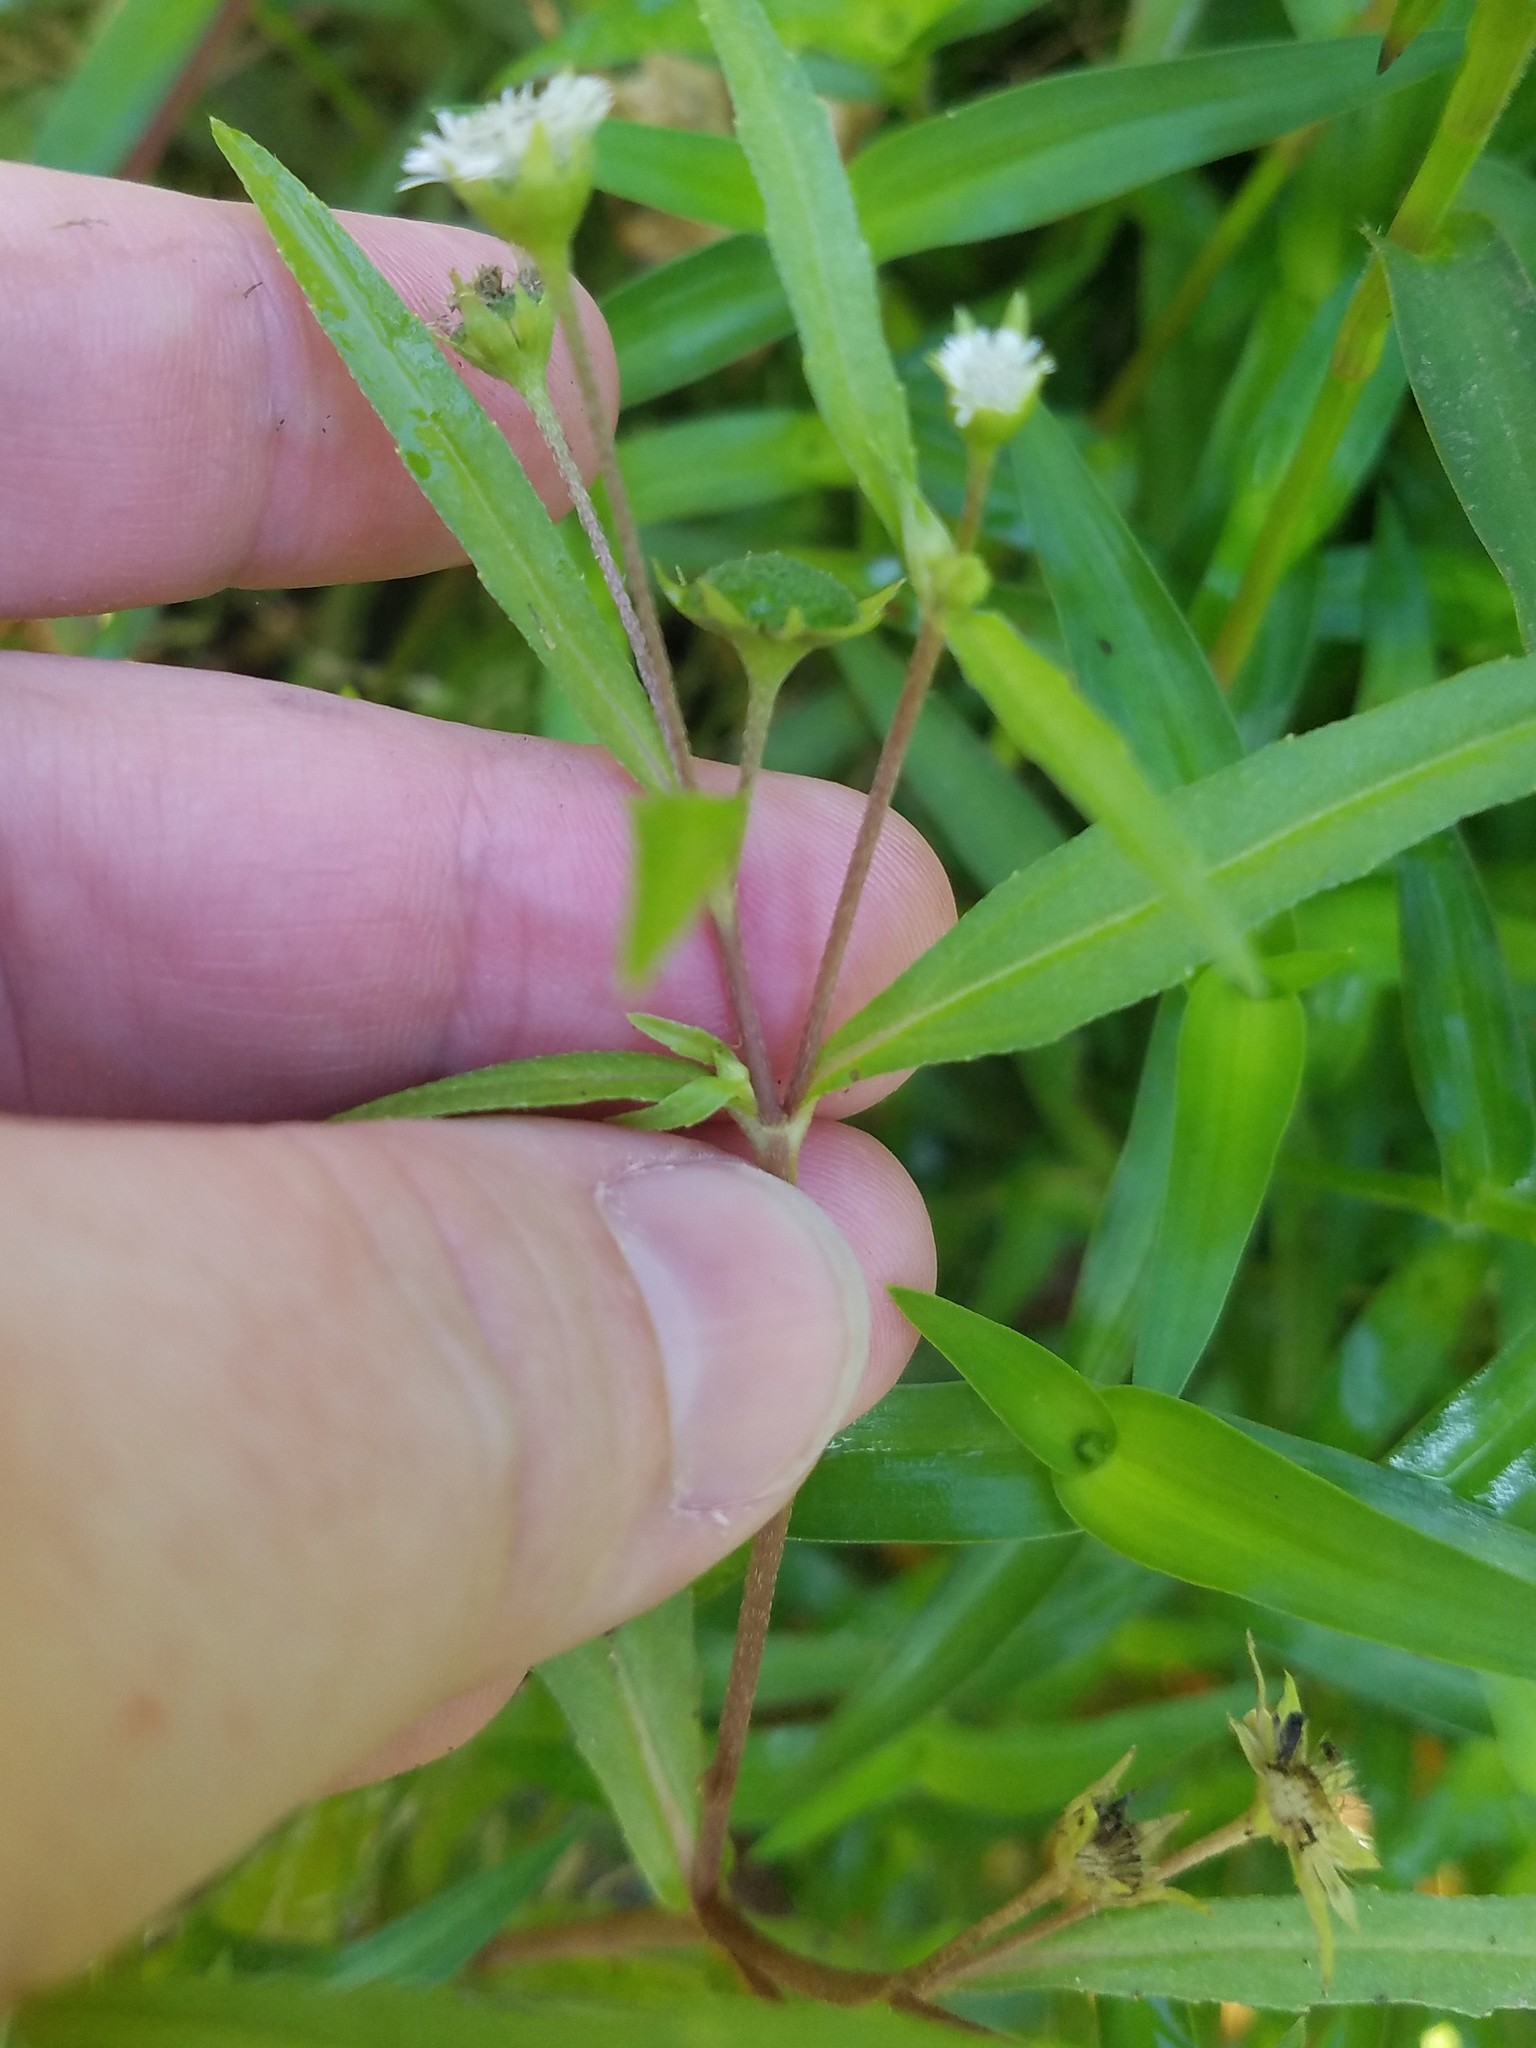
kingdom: Plantae
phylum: Tracheophyta
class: Magnoliopsida
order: Asterales
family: Asteraceae
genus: Eclipta
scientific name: Eclipta prostrata
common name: False daisy
